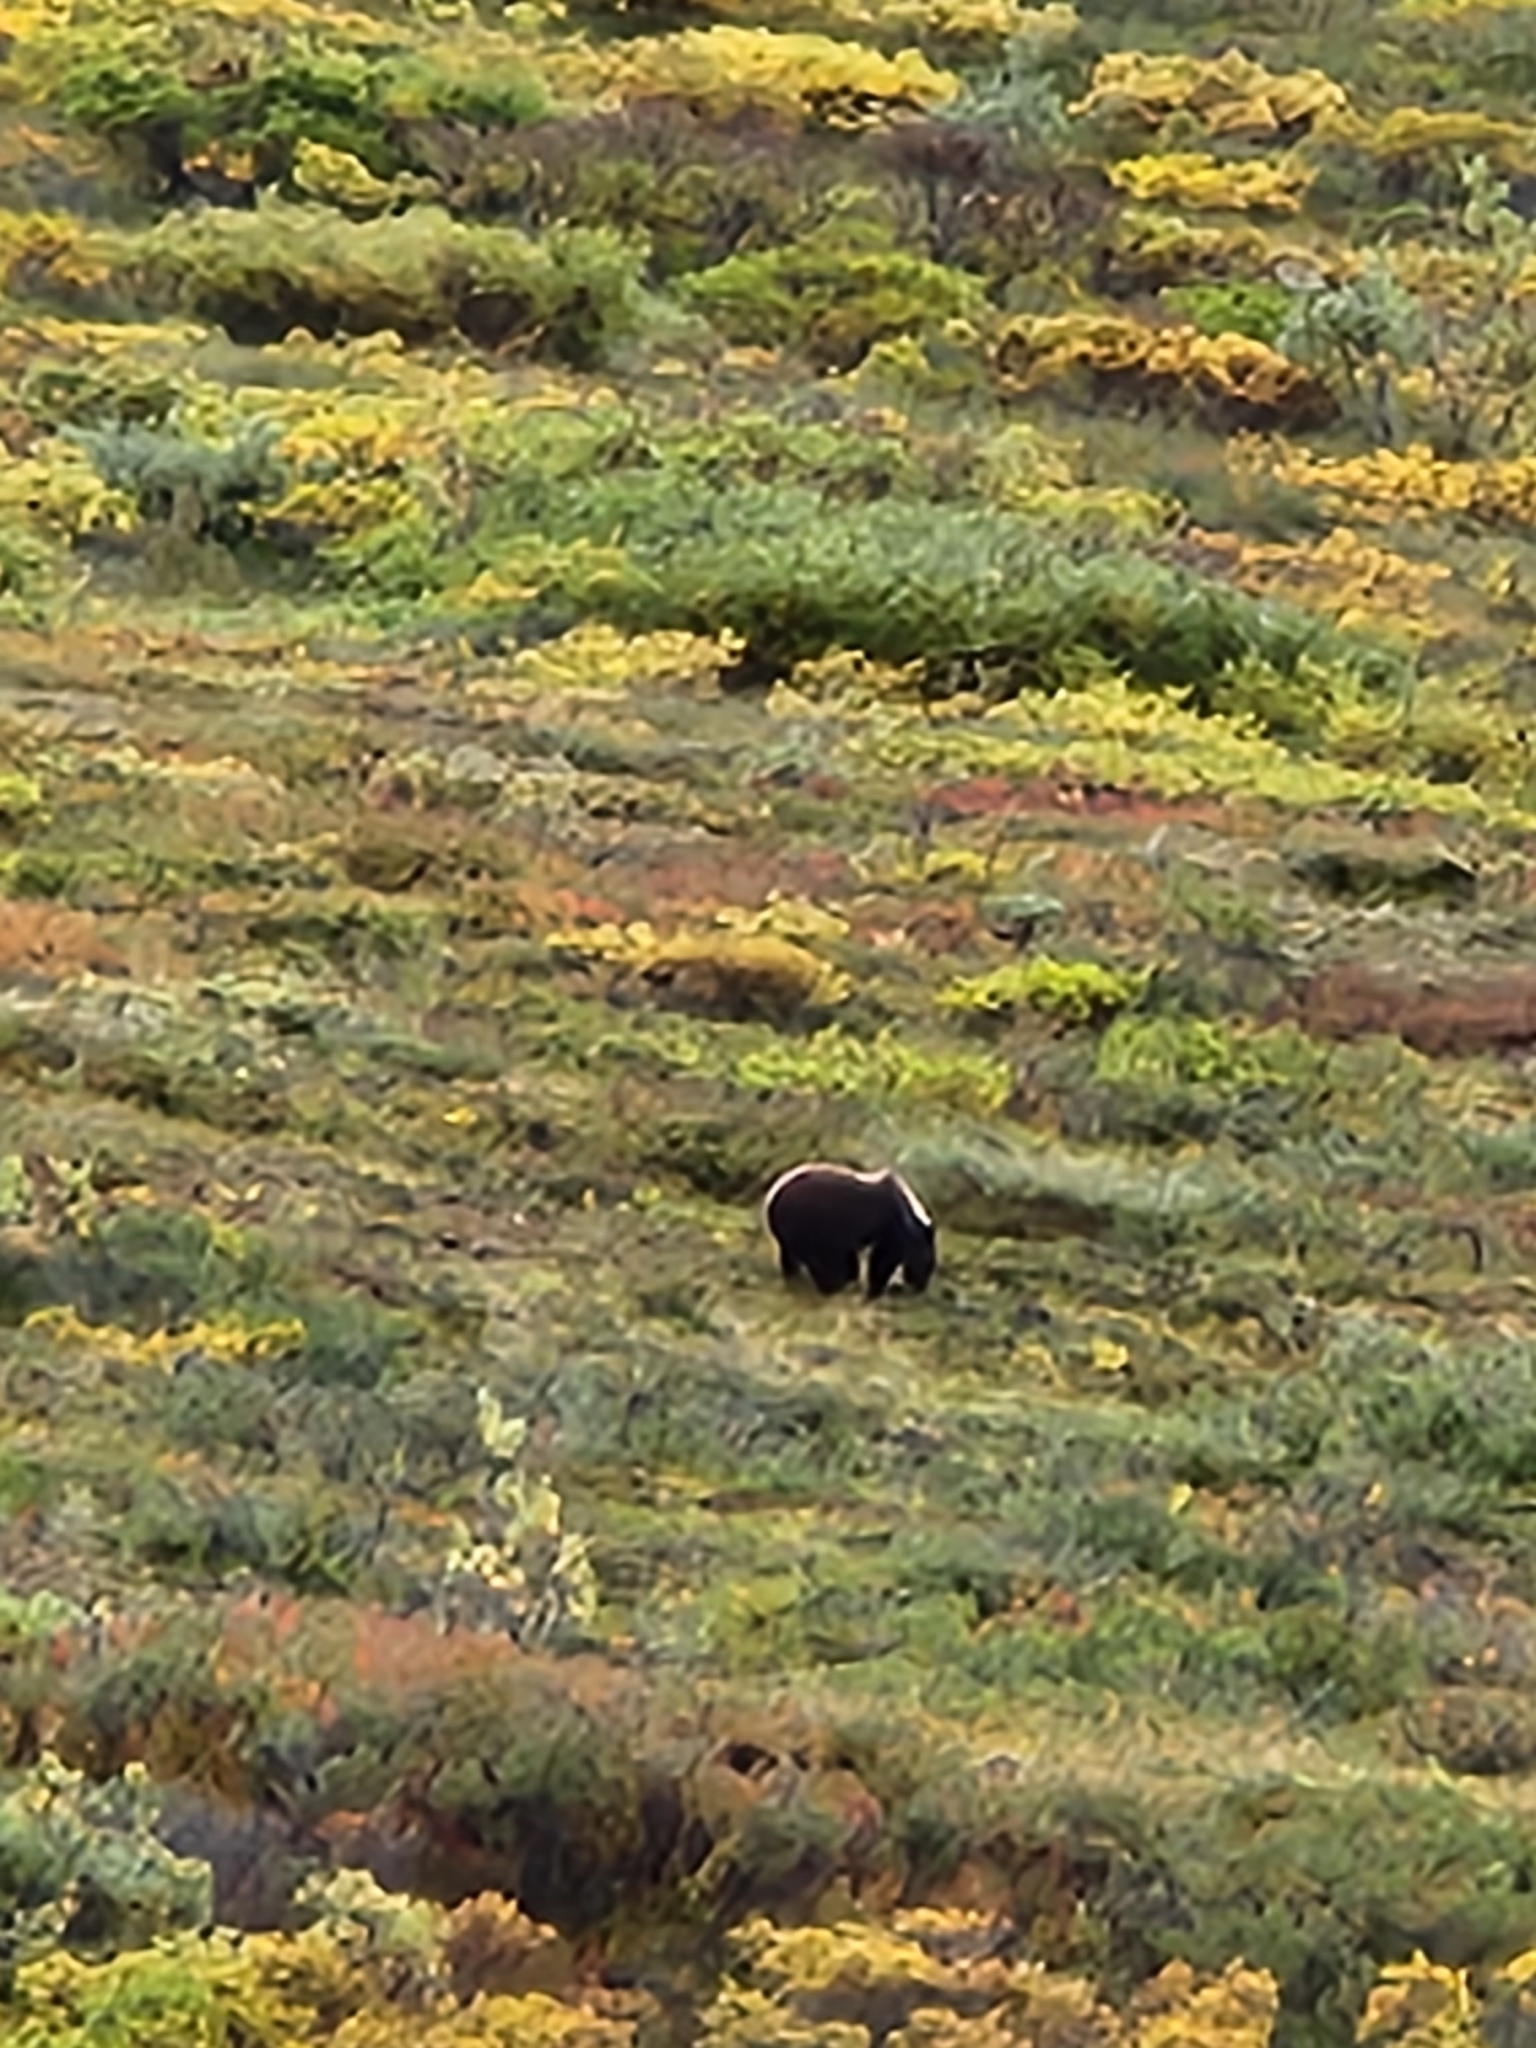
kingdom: Animalia
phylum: Chordata
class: Mammalia
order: Carnivora
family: Ursidae
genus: Ursus
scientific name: Ursus arctos
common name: Brown bear
